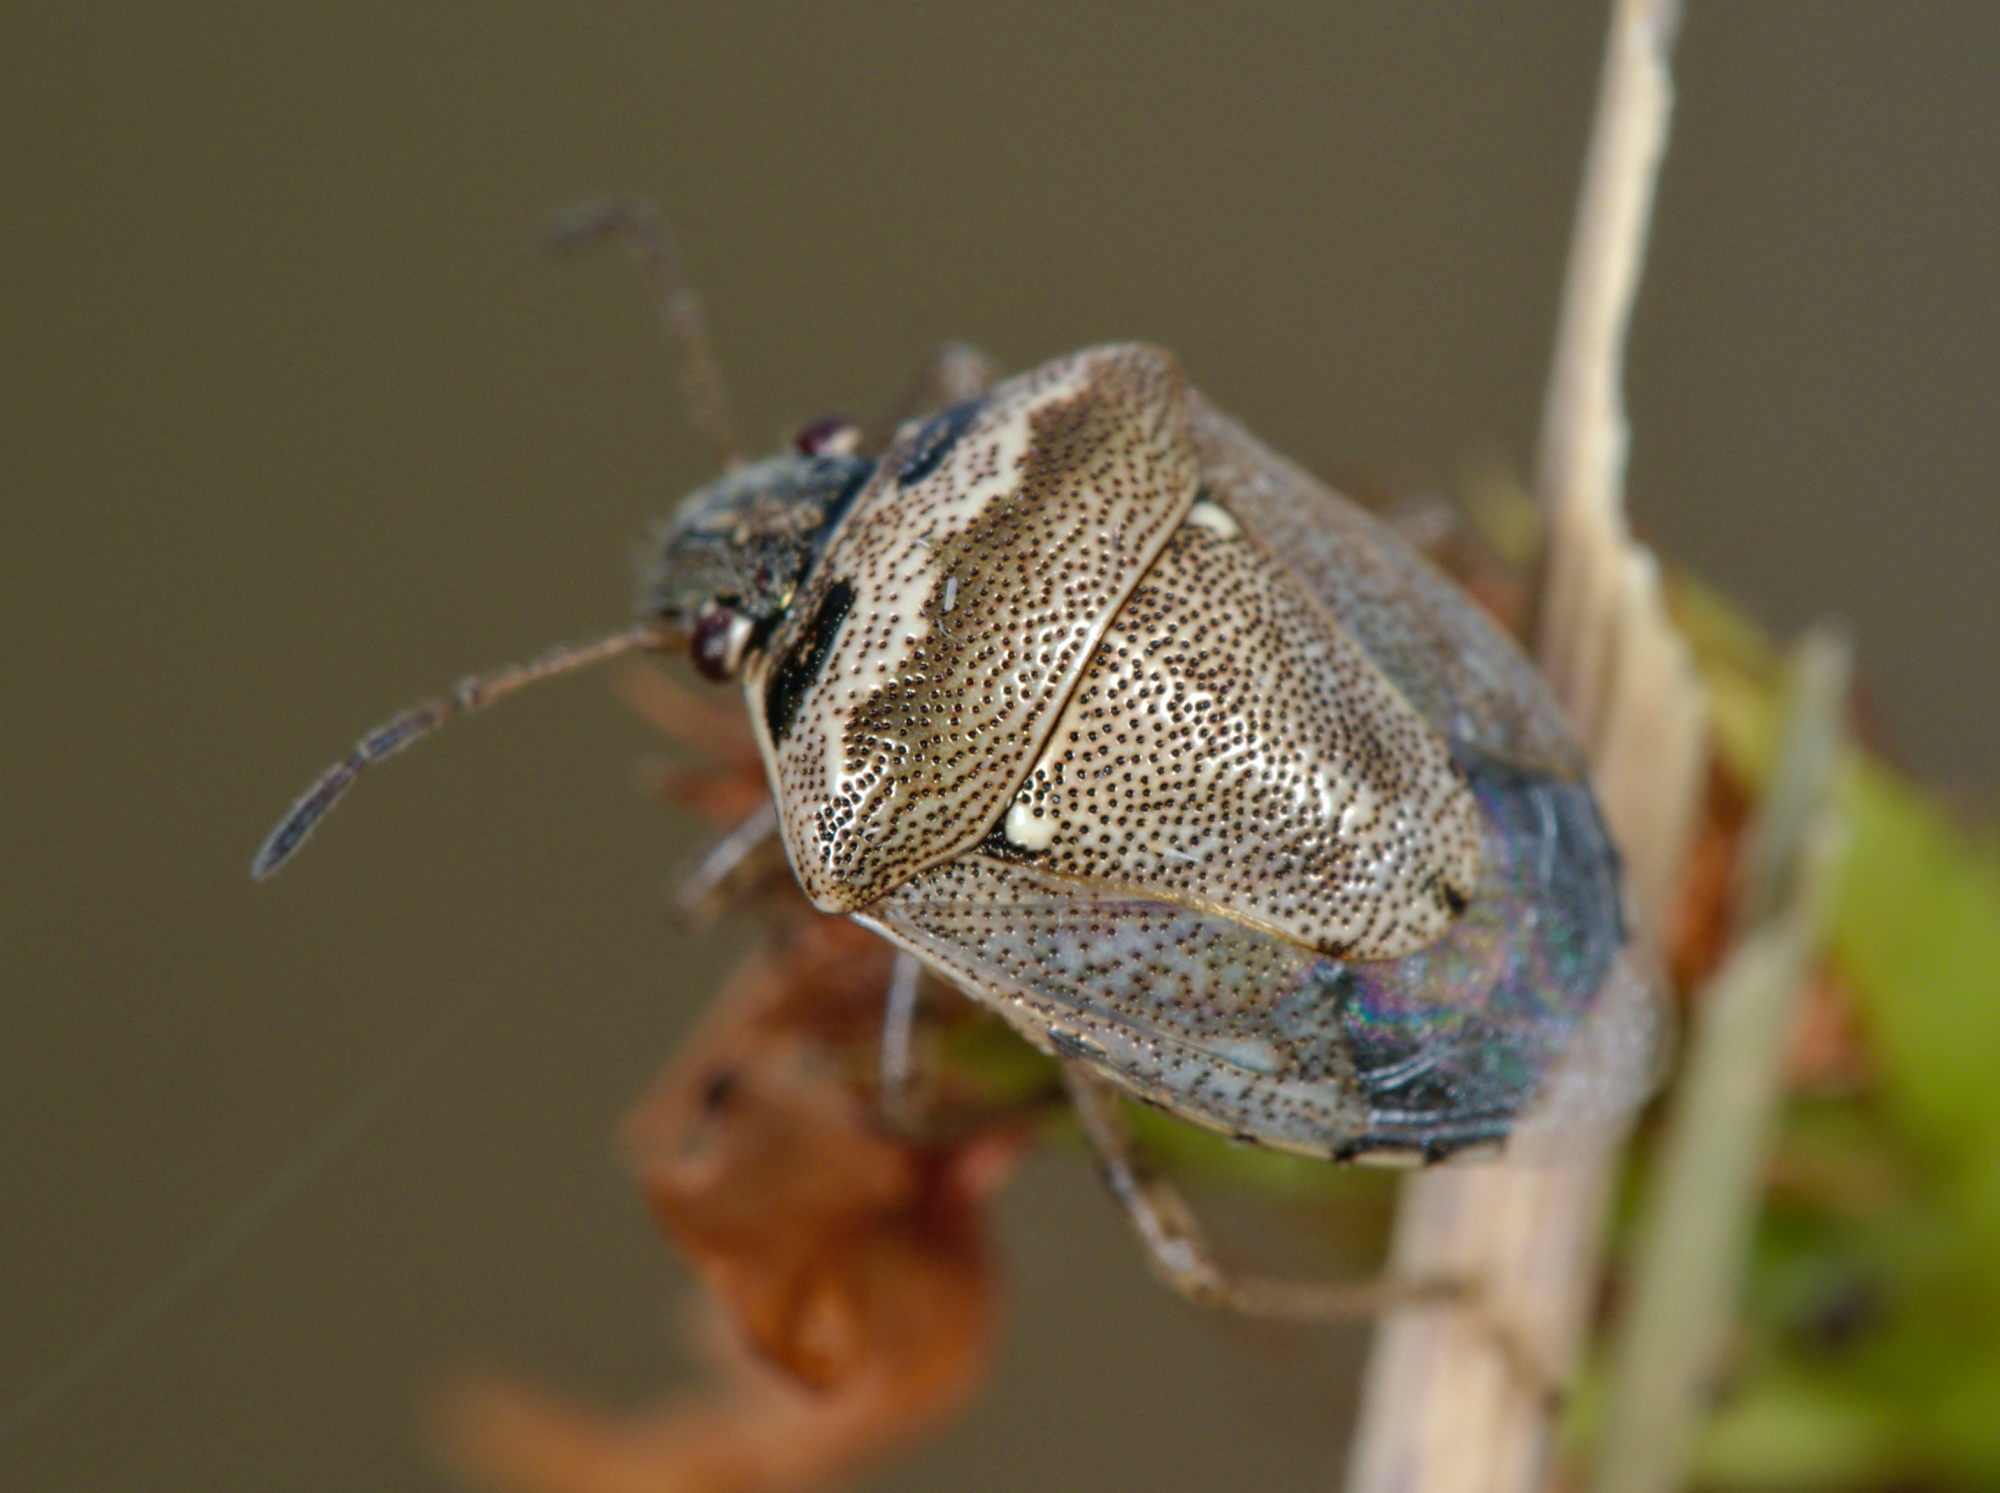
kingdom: Animalia
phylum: Arthropoda
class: Insecta
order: Hemiptera
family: Pentatomidae
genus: Eysarcoris
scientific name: Eysarcoris ventralis
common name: White-spotted stink bug
